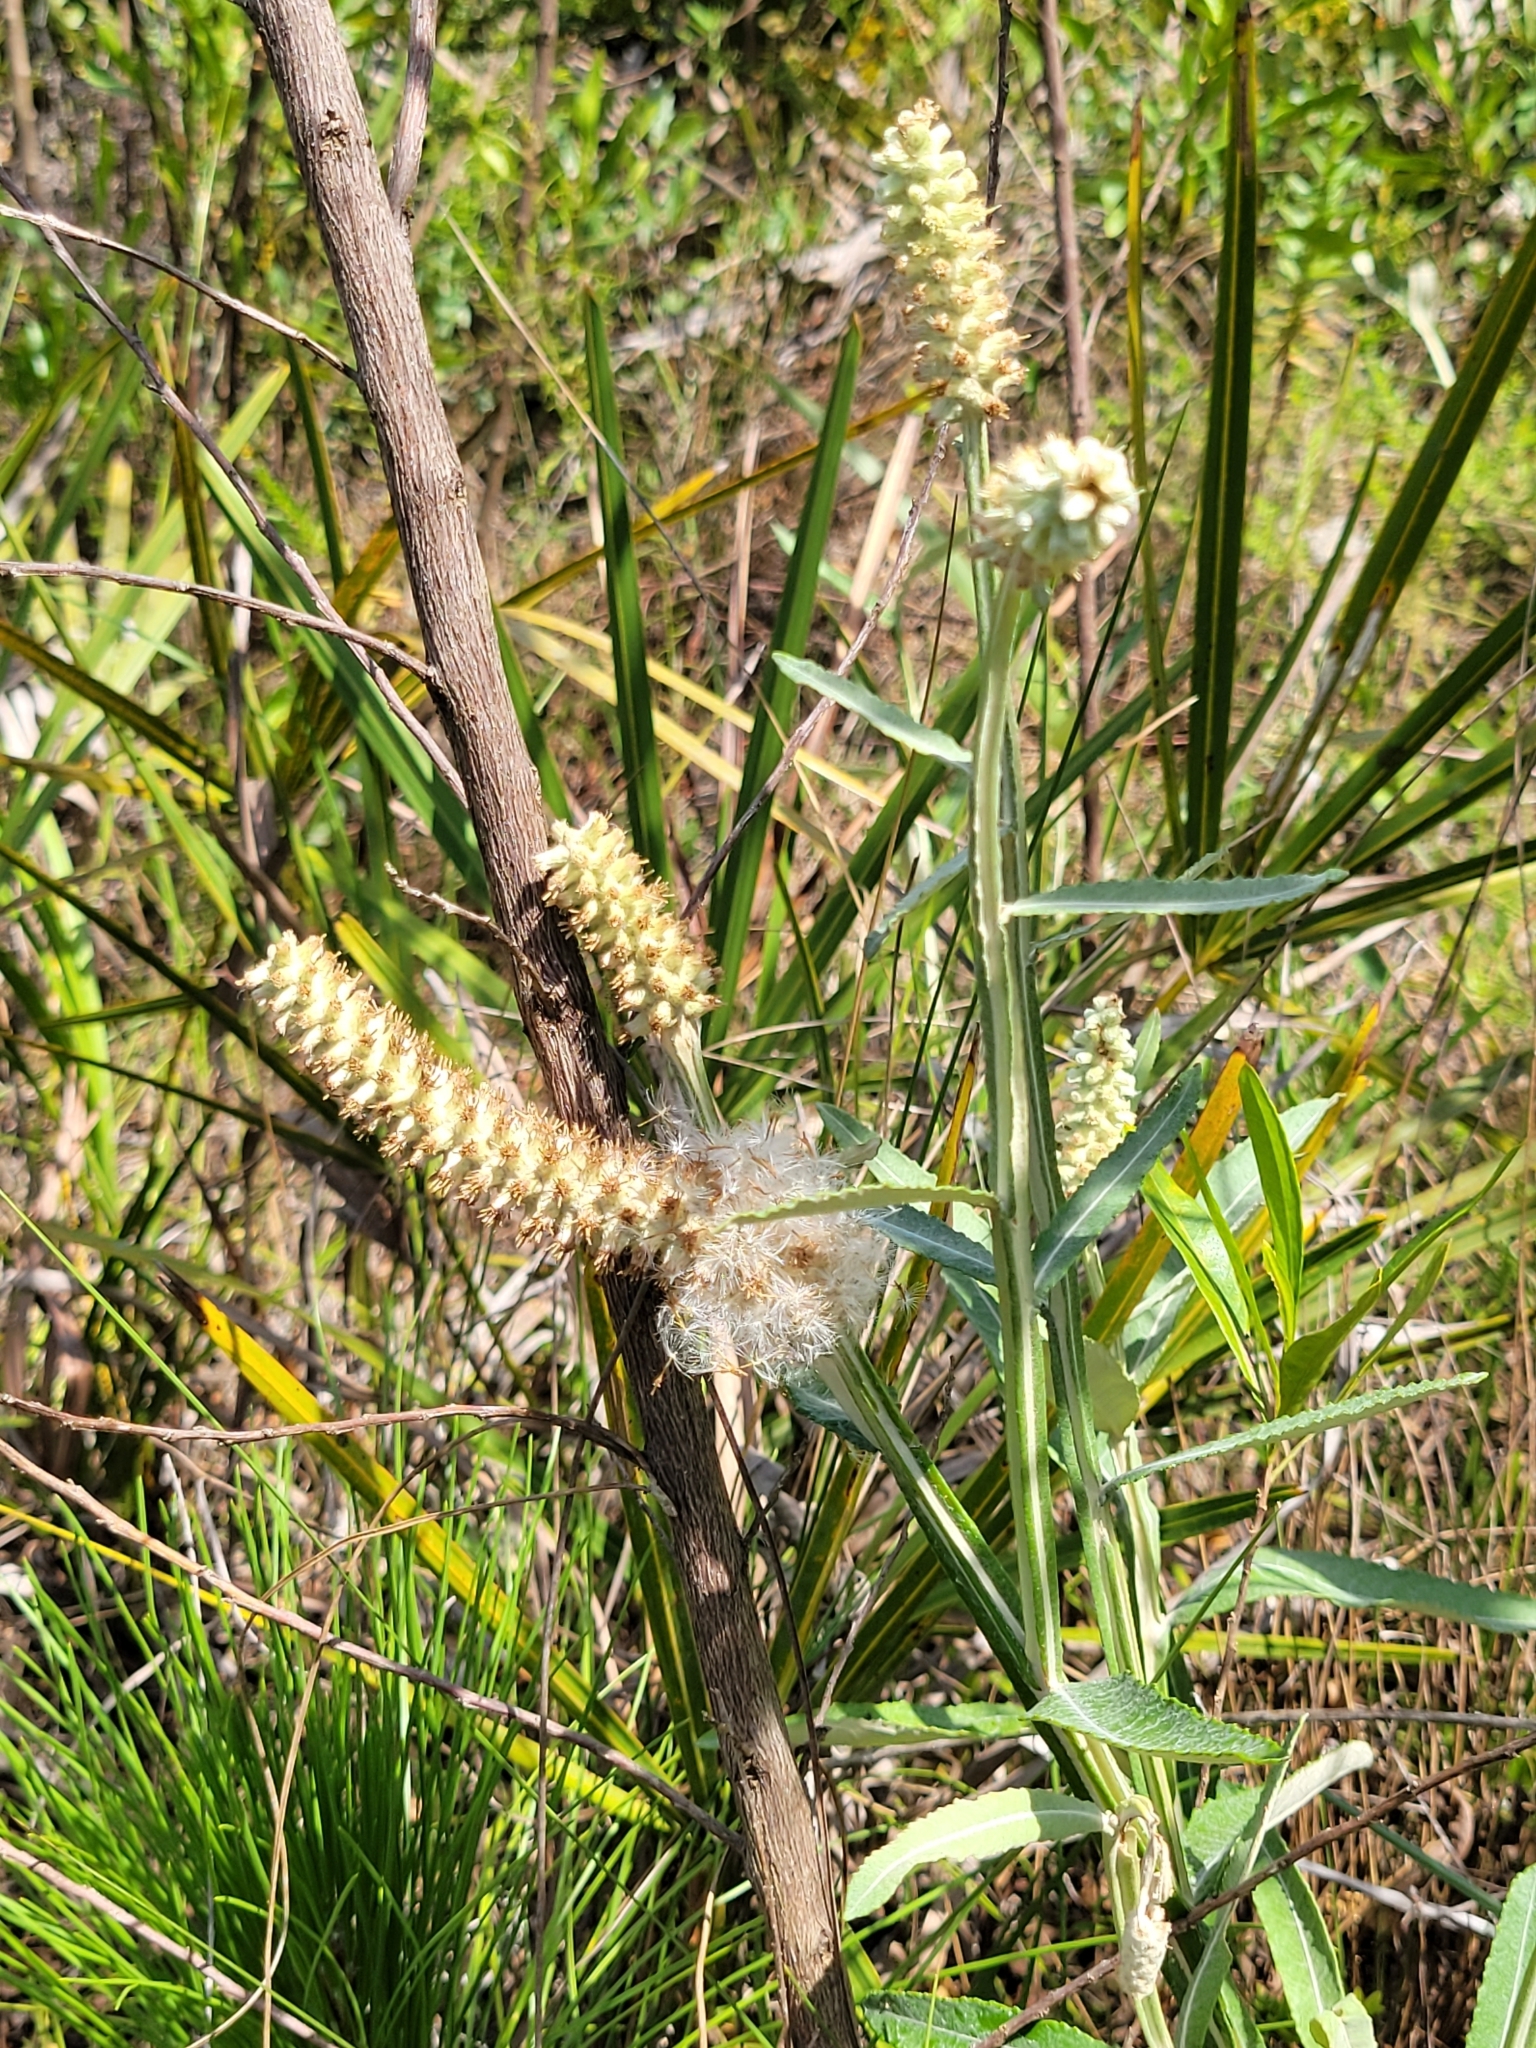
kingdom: Plantae
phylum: Tracheophyta
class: Magnoliopsida
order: Asterales
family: Asteraceae
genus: Pterocaulon
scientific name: Pterocaulon pycnostachyum
